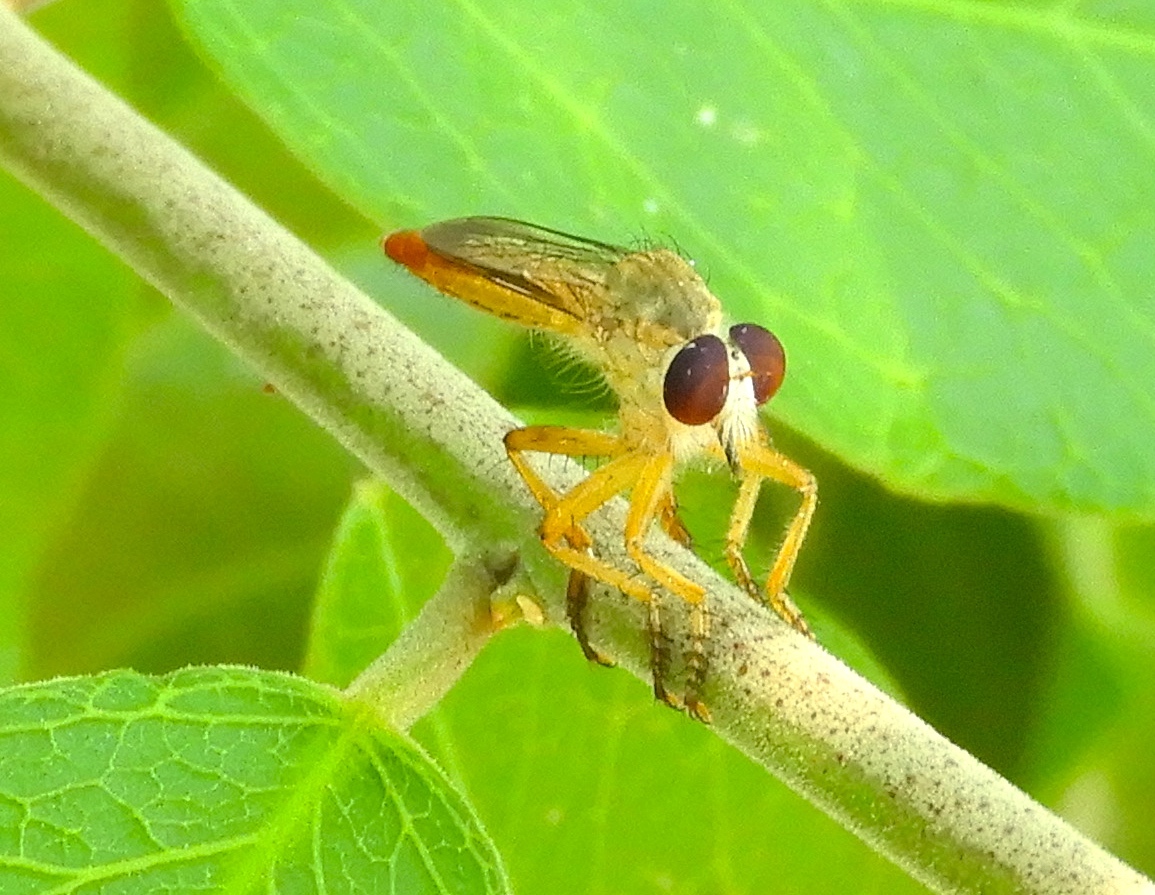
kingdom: Animalia
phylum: Arthropoda
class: Insecta
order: Diptera
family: Asilidae
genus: Ommatius
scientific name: Ommatius
